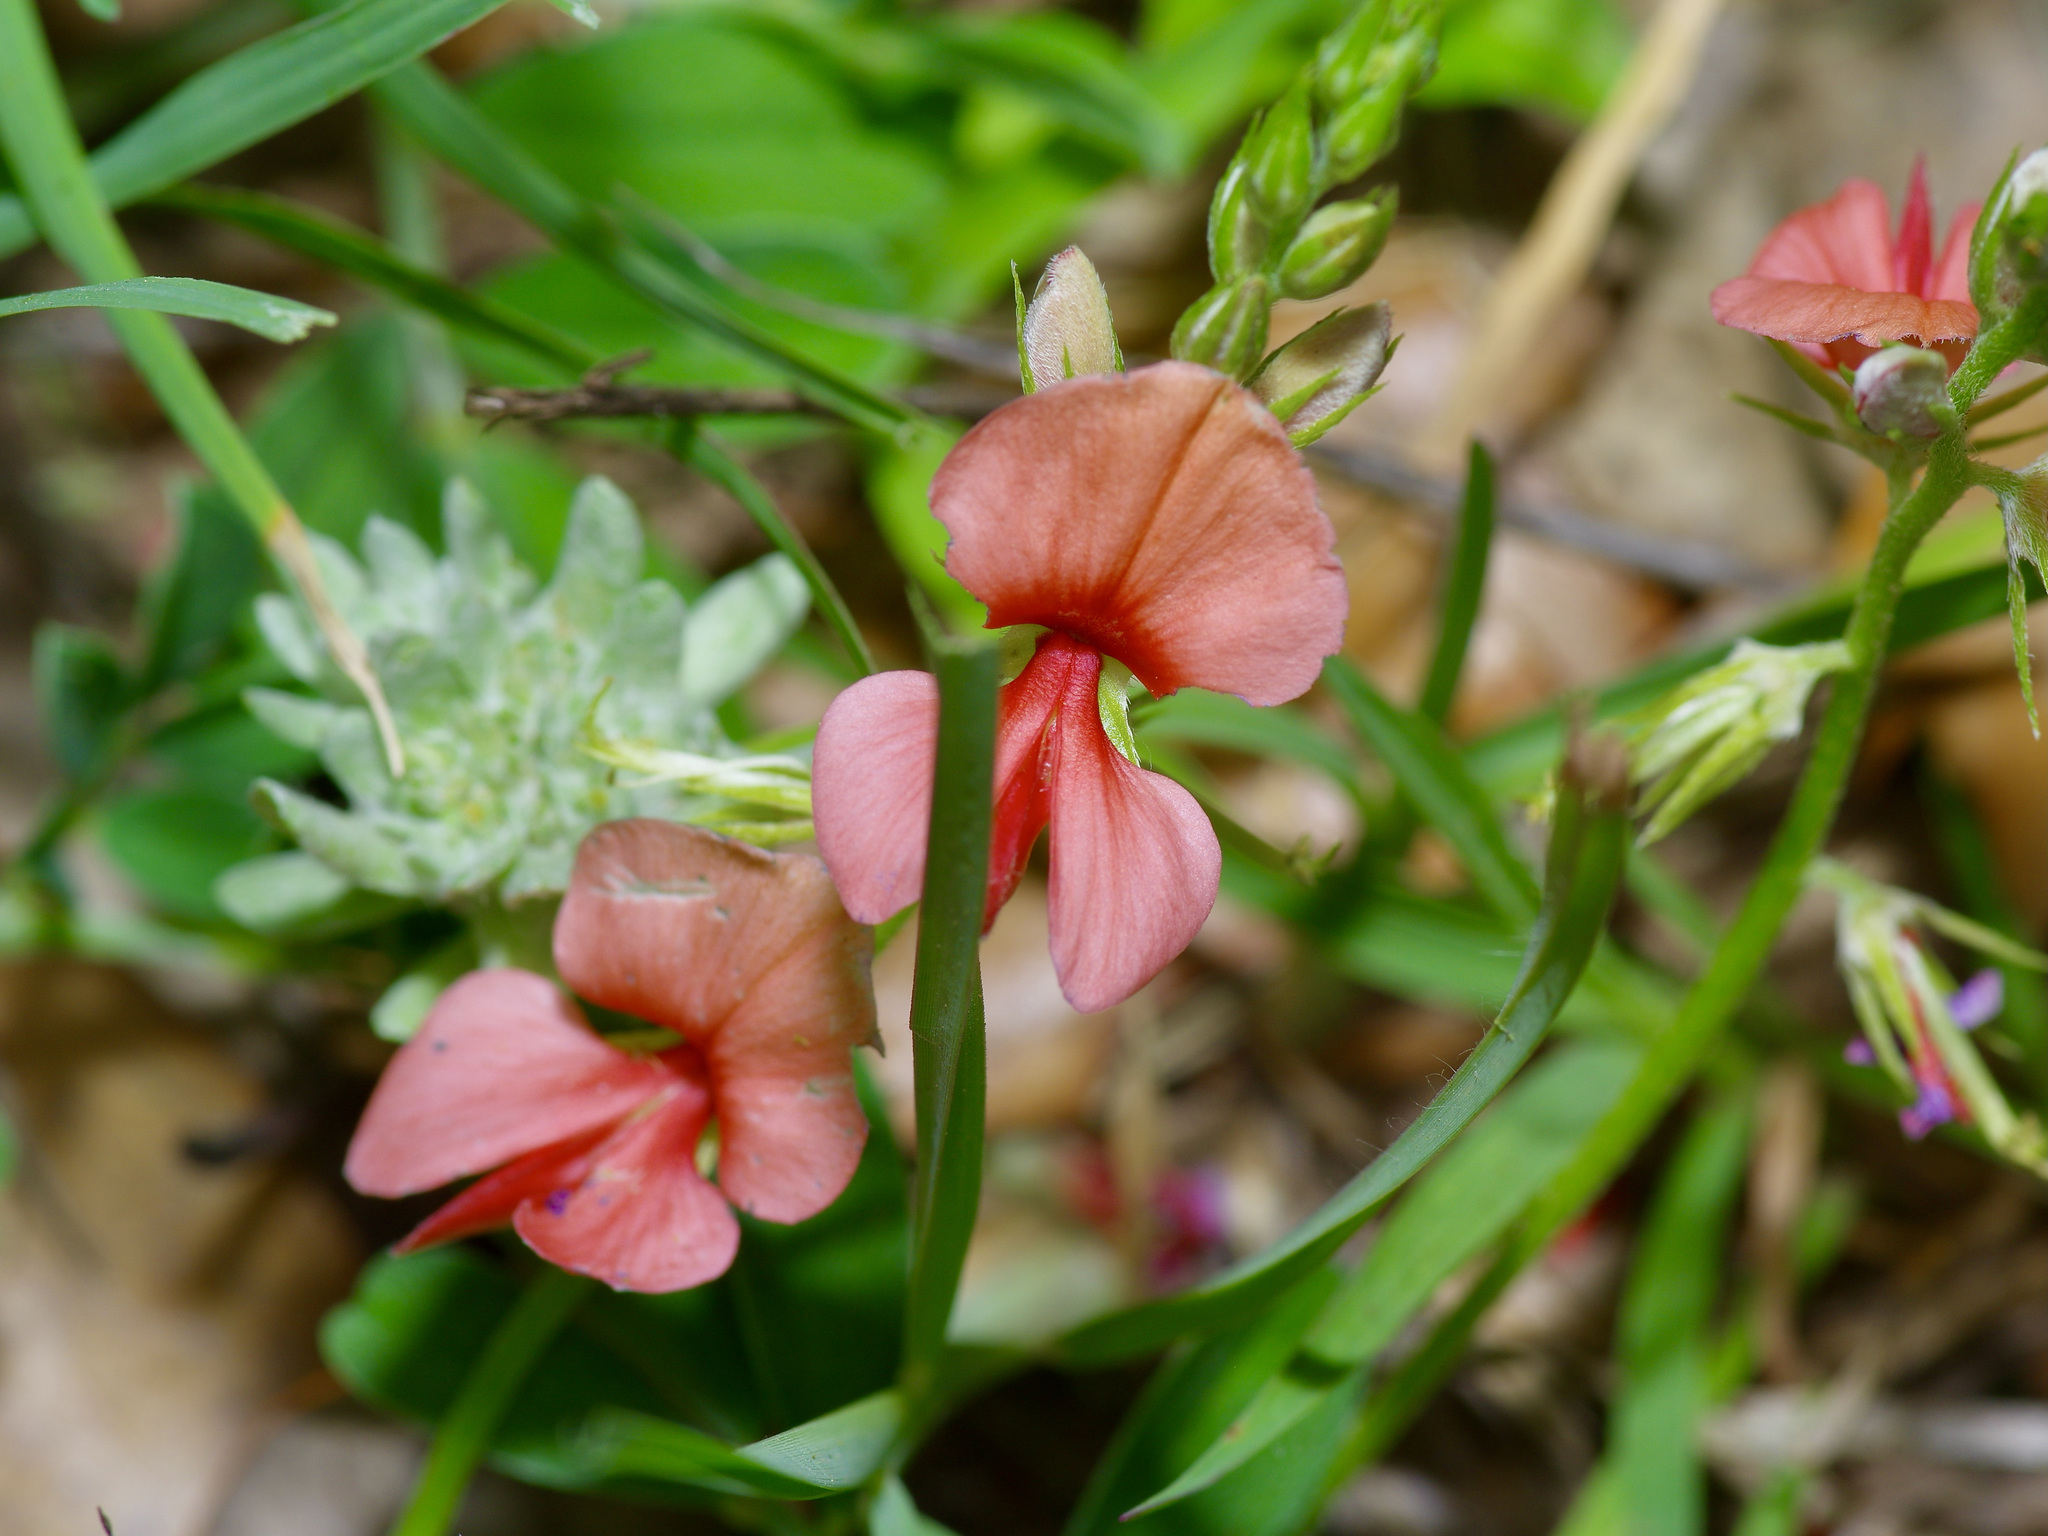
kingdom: Plantae
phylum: Tracheophyta
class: Magnoliopsida
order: Fabales
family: Fabaceae
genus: Indigofera
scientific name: Indigofera miniata
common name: Coast indigo
